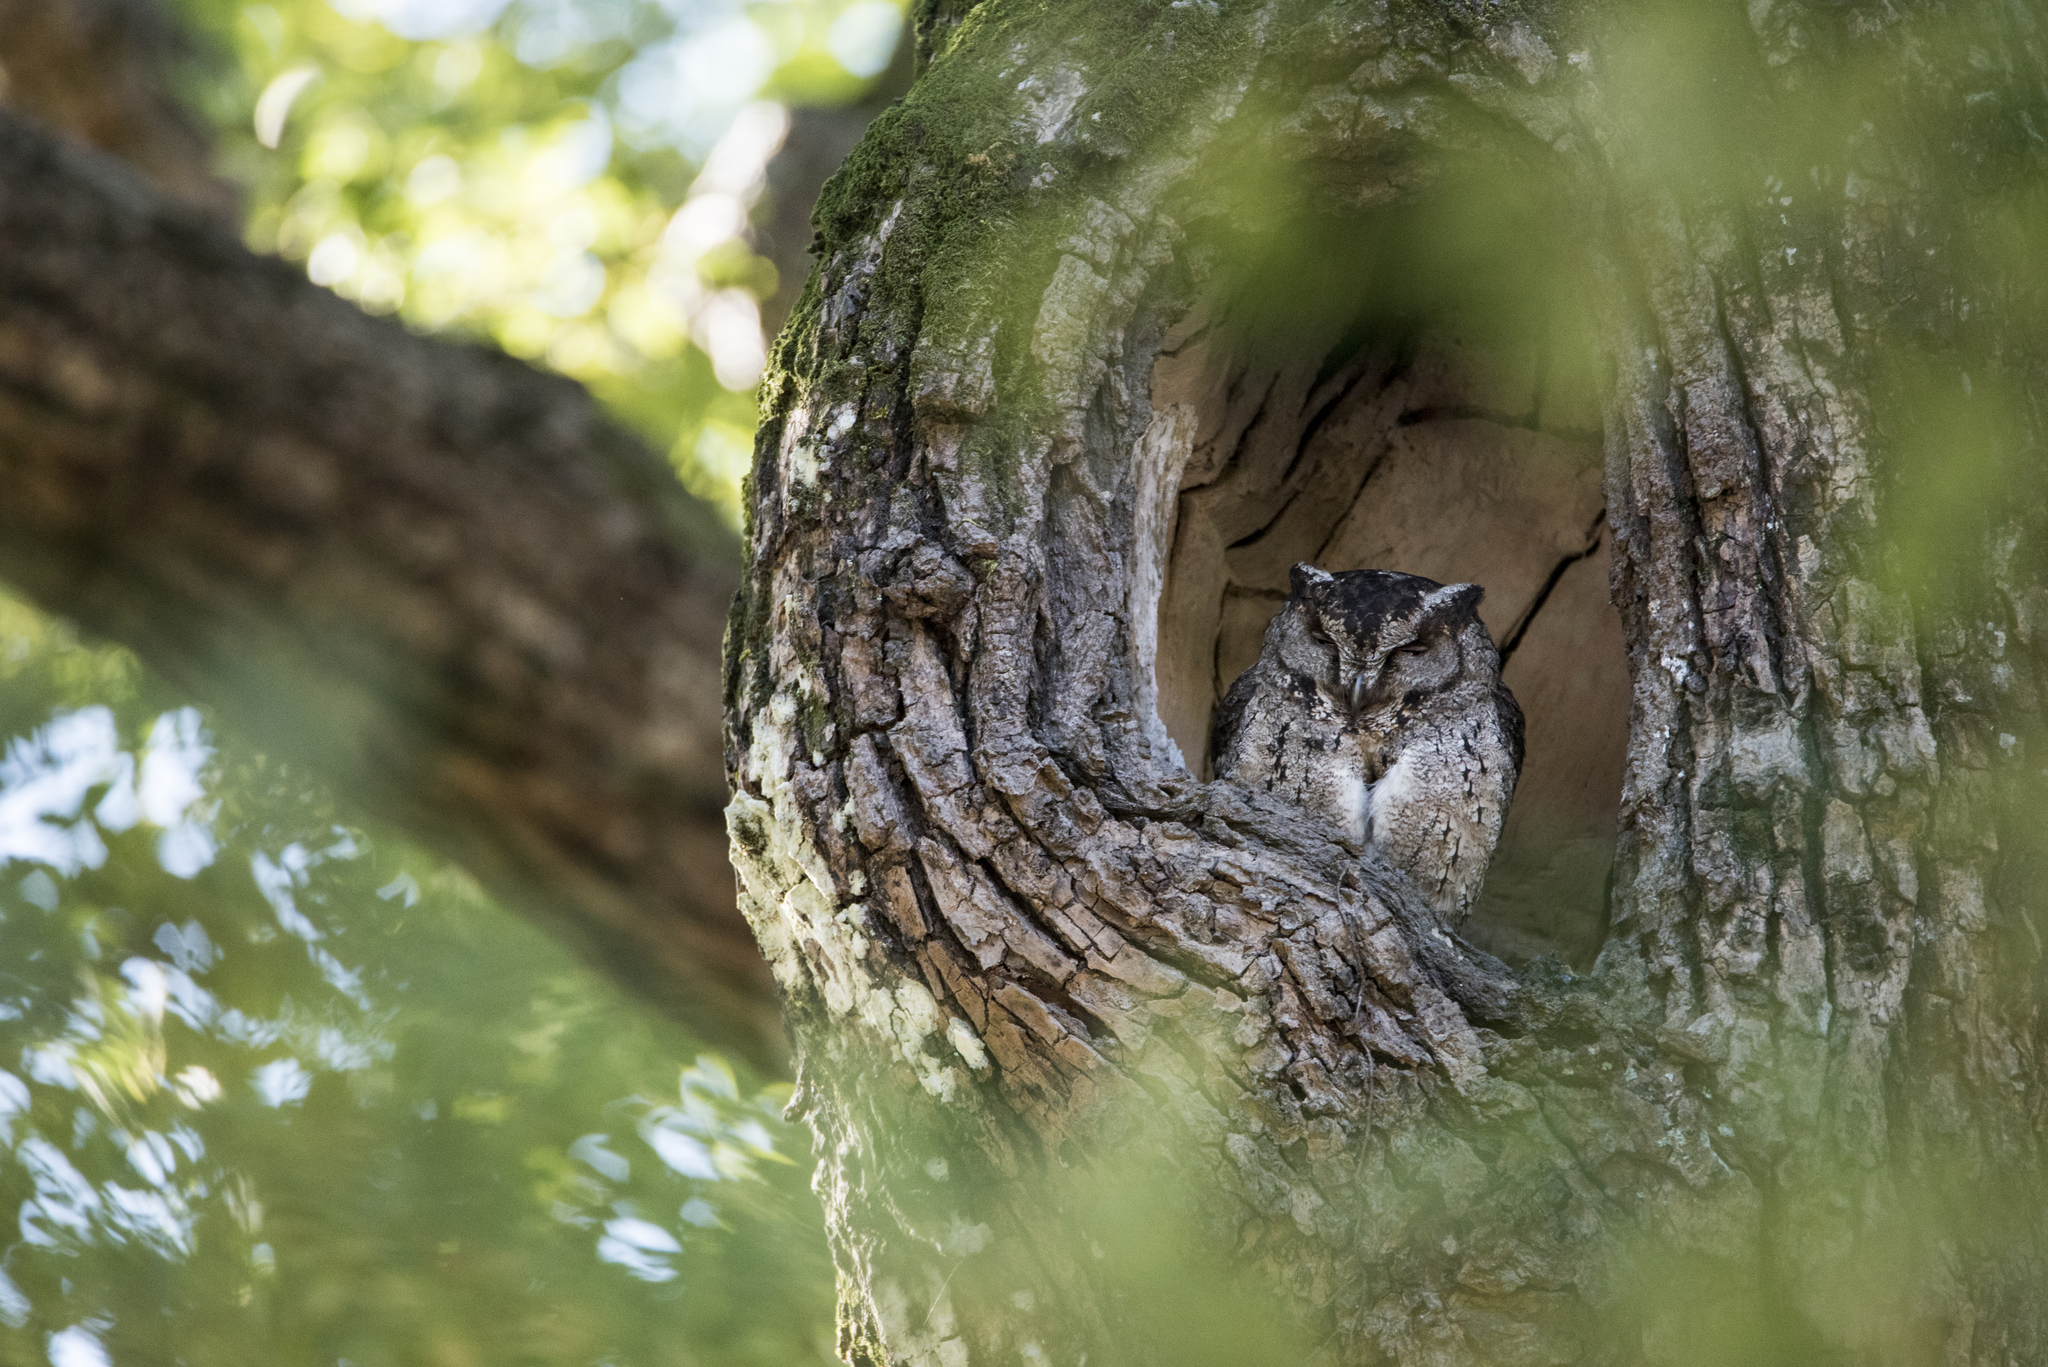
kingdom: Animalia
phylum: Chordata
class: Aves
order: Strigiformes
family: Strigidae
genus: Otus
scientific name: Otus lettia
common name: Collared scops owl
